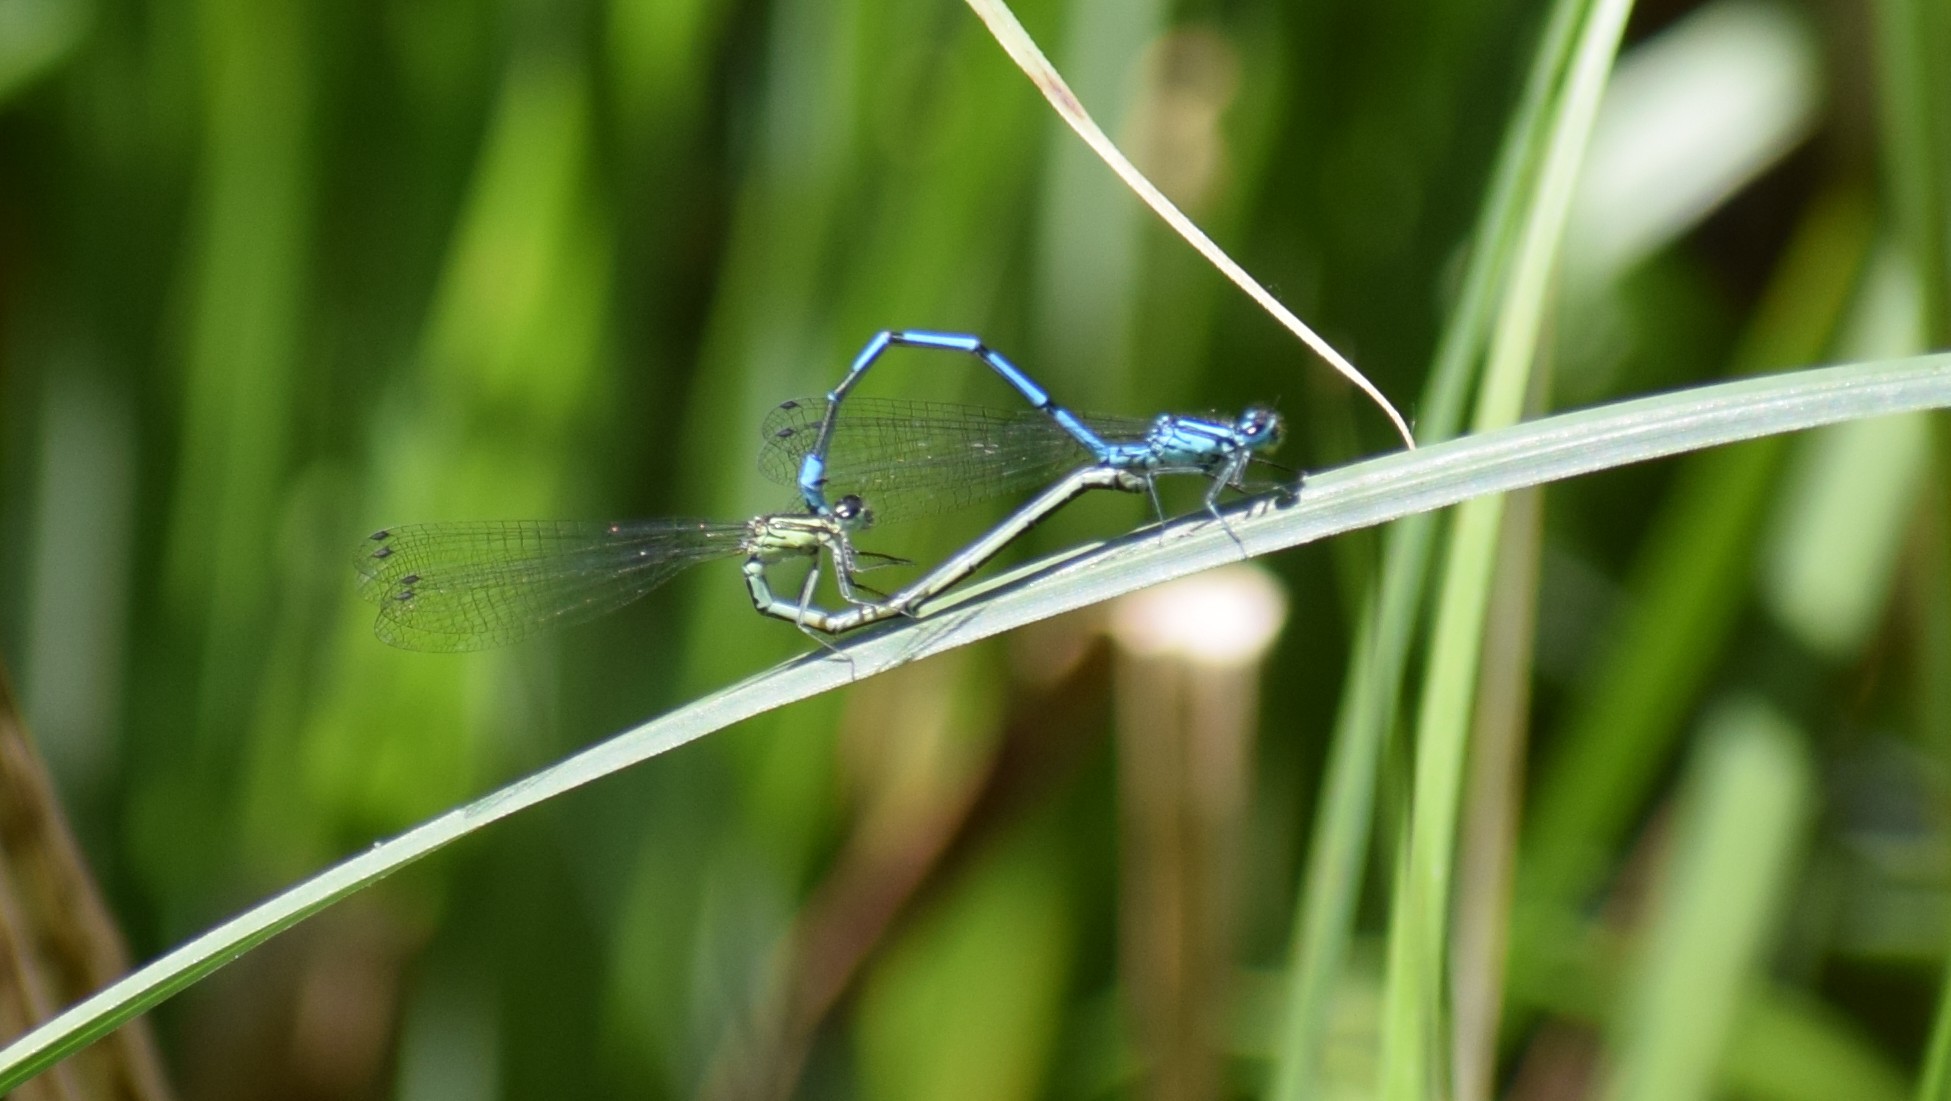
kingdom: Animalia
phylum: Arthropoda
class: Insecta
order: Odonata
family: Coenagrionidae
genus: Coenagrion
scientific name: Coenagrion puella
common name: Azure damselfly
